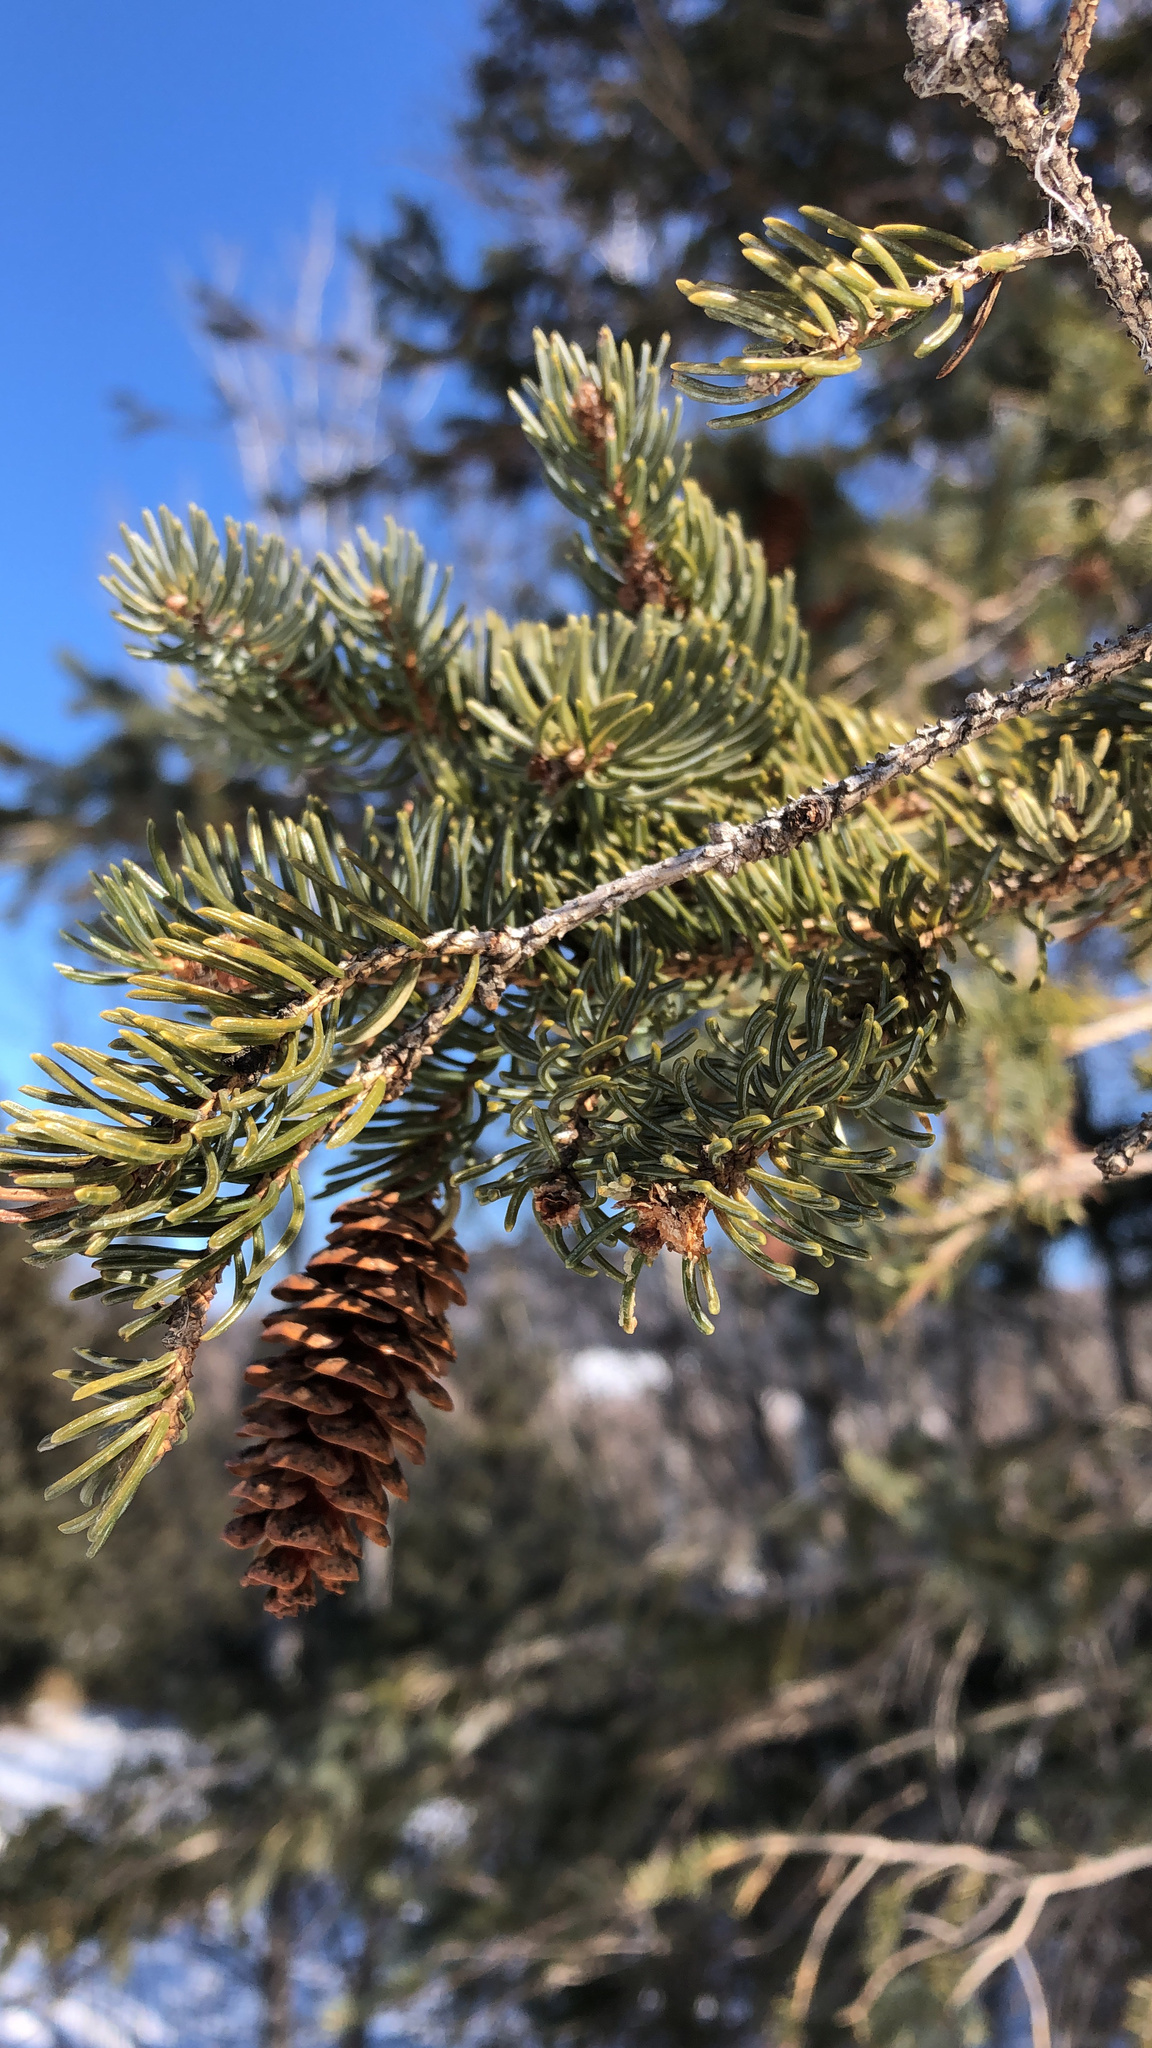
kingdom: Plantae
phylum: Tracheophyta
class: Pinopsida
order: Pinales
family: Pinaceae
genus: Picea
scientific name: Picea glauca
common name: White spruce
